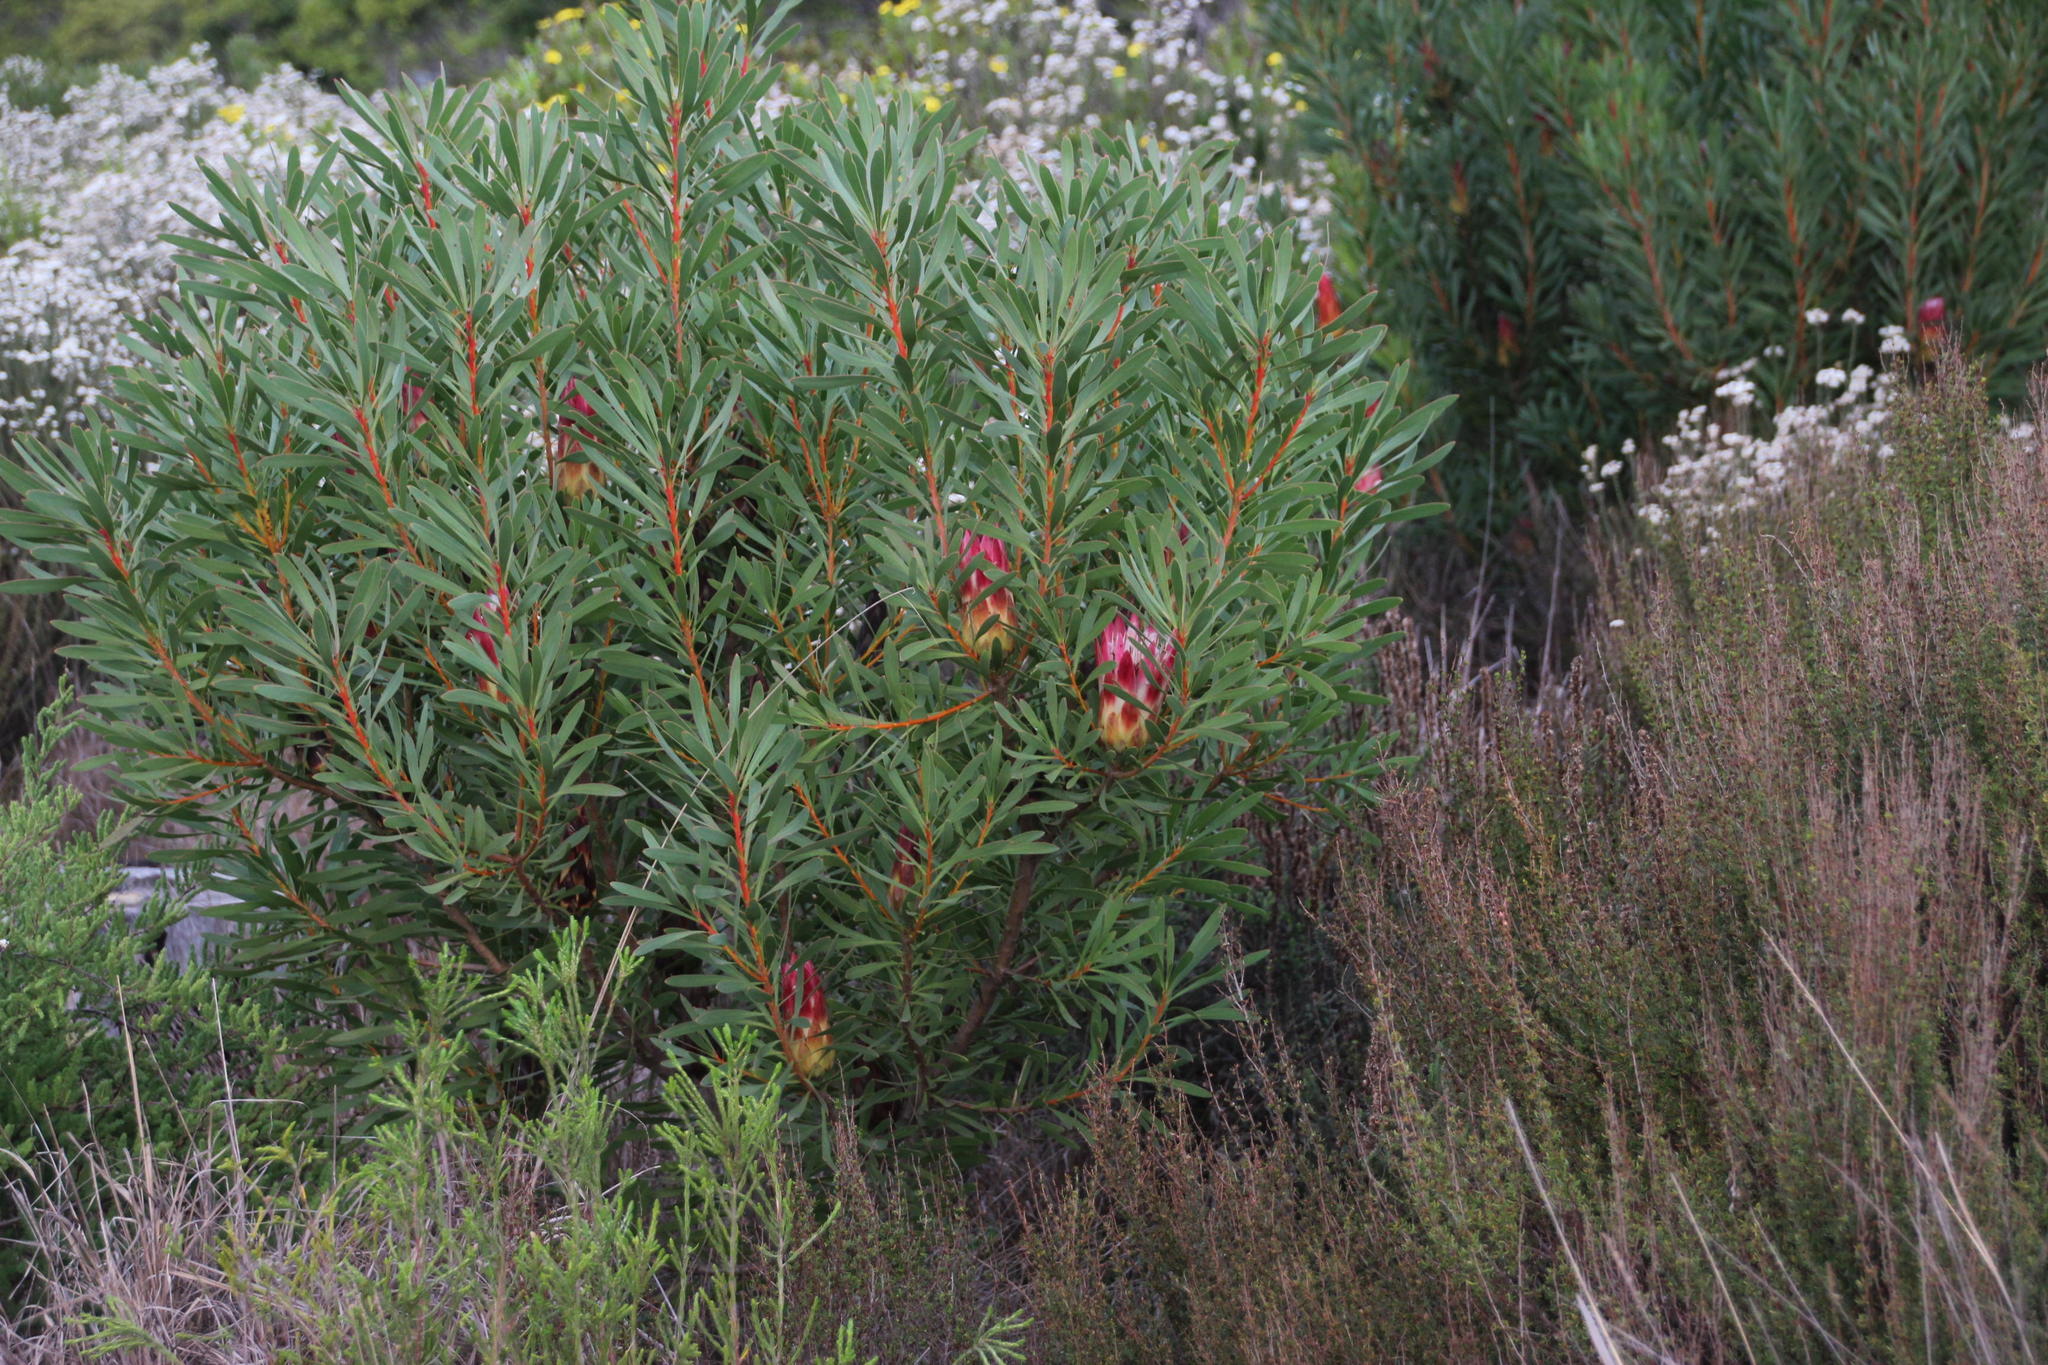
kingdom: Plantae
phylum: Tracheophyta
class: Magnoliopsida
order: Proteales
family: Proteaceae
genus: Protea
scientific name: Protea repens
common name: Sugarbush
